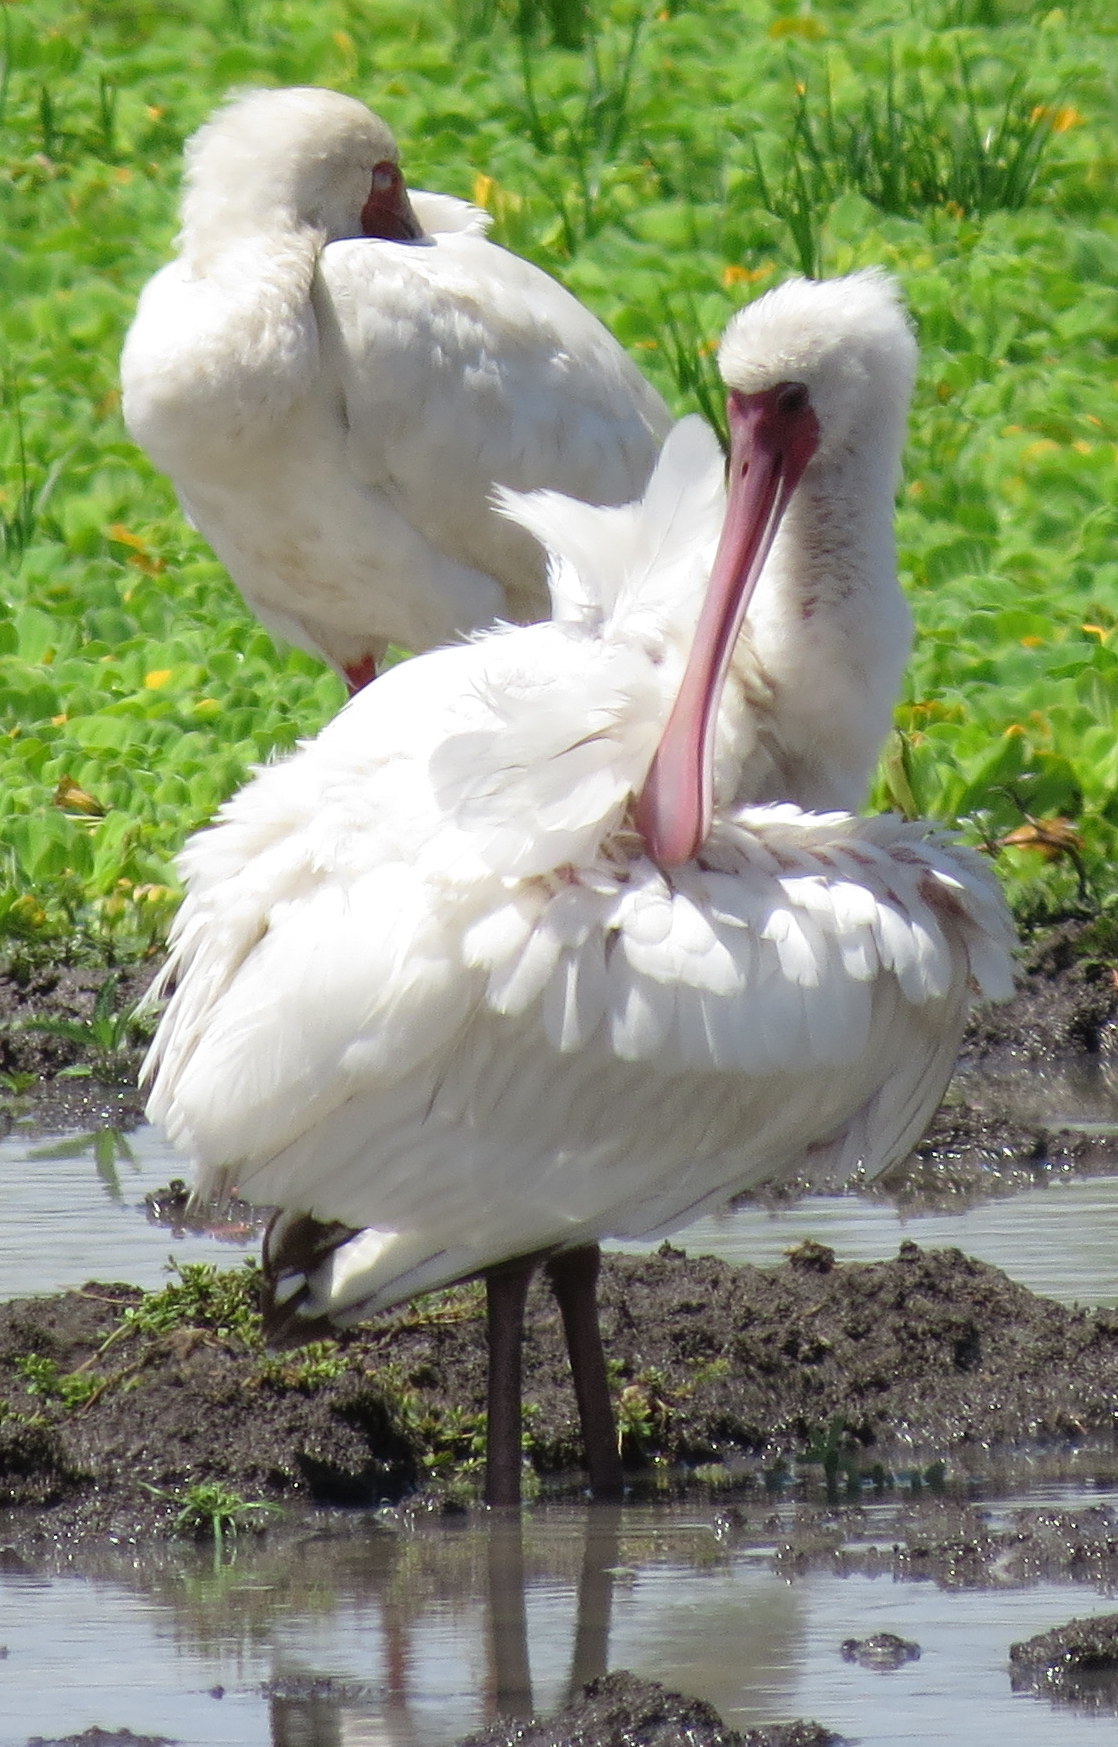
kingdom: Animalia
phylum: Chordata
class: Aves
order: Pelecaniformes
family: Threskiornithidae
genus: Platalea
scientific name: Platalea alba
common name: African spoonbill
